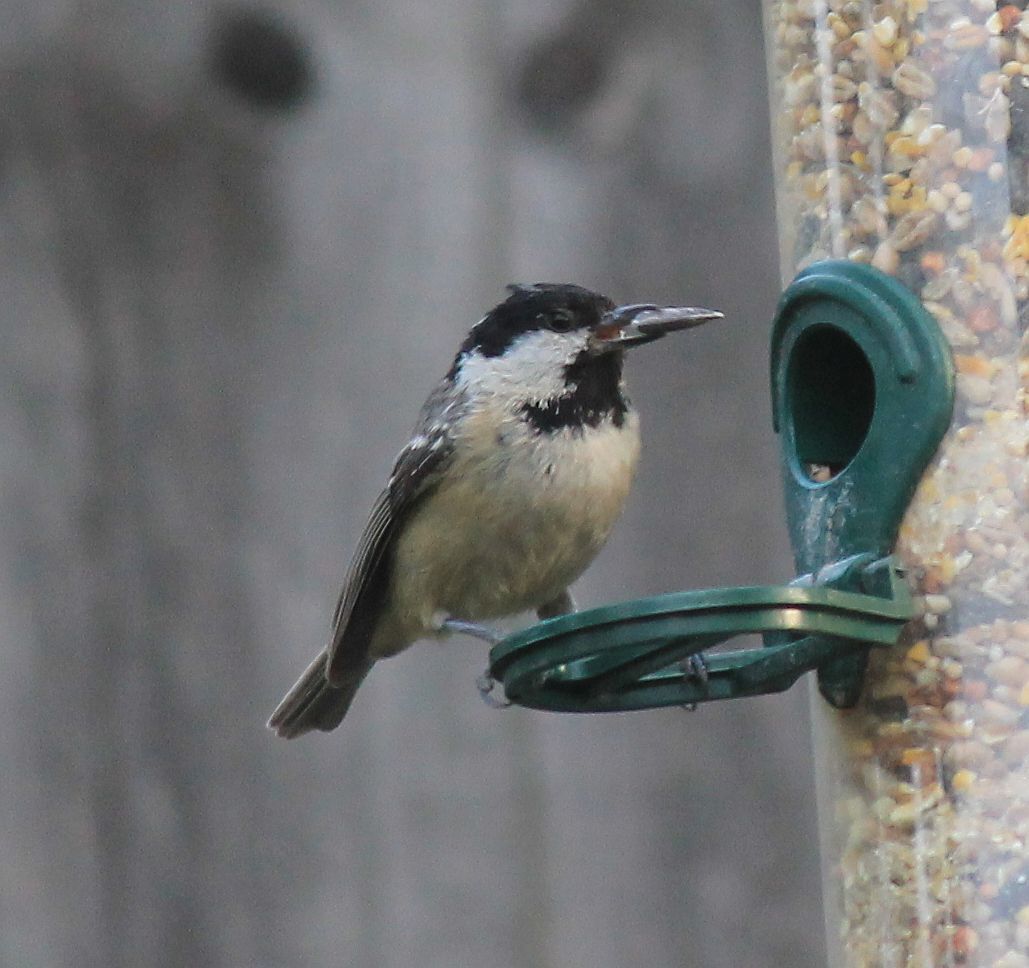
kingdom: Animalia
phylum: Chordata
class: Aves
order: Passeriformes
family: Paridae
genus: Periparus
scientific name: Periparus ater
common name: Coal tit
